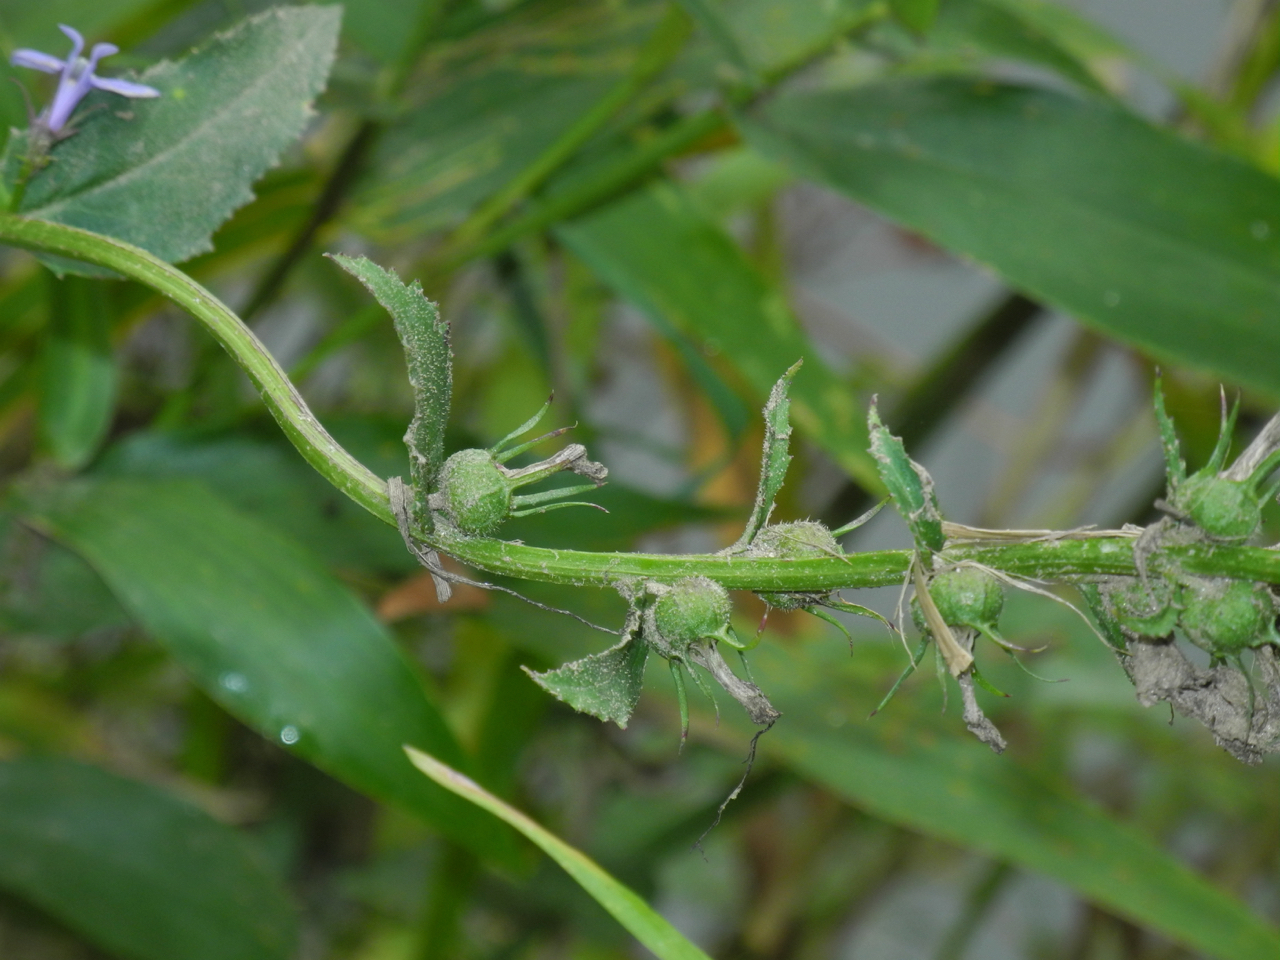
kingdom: Plantae
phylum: Tracheophyta
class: Magnoliopsida
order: Asterales
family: Campanulaceae
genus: Lobelia
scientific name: Lobelia amoena
